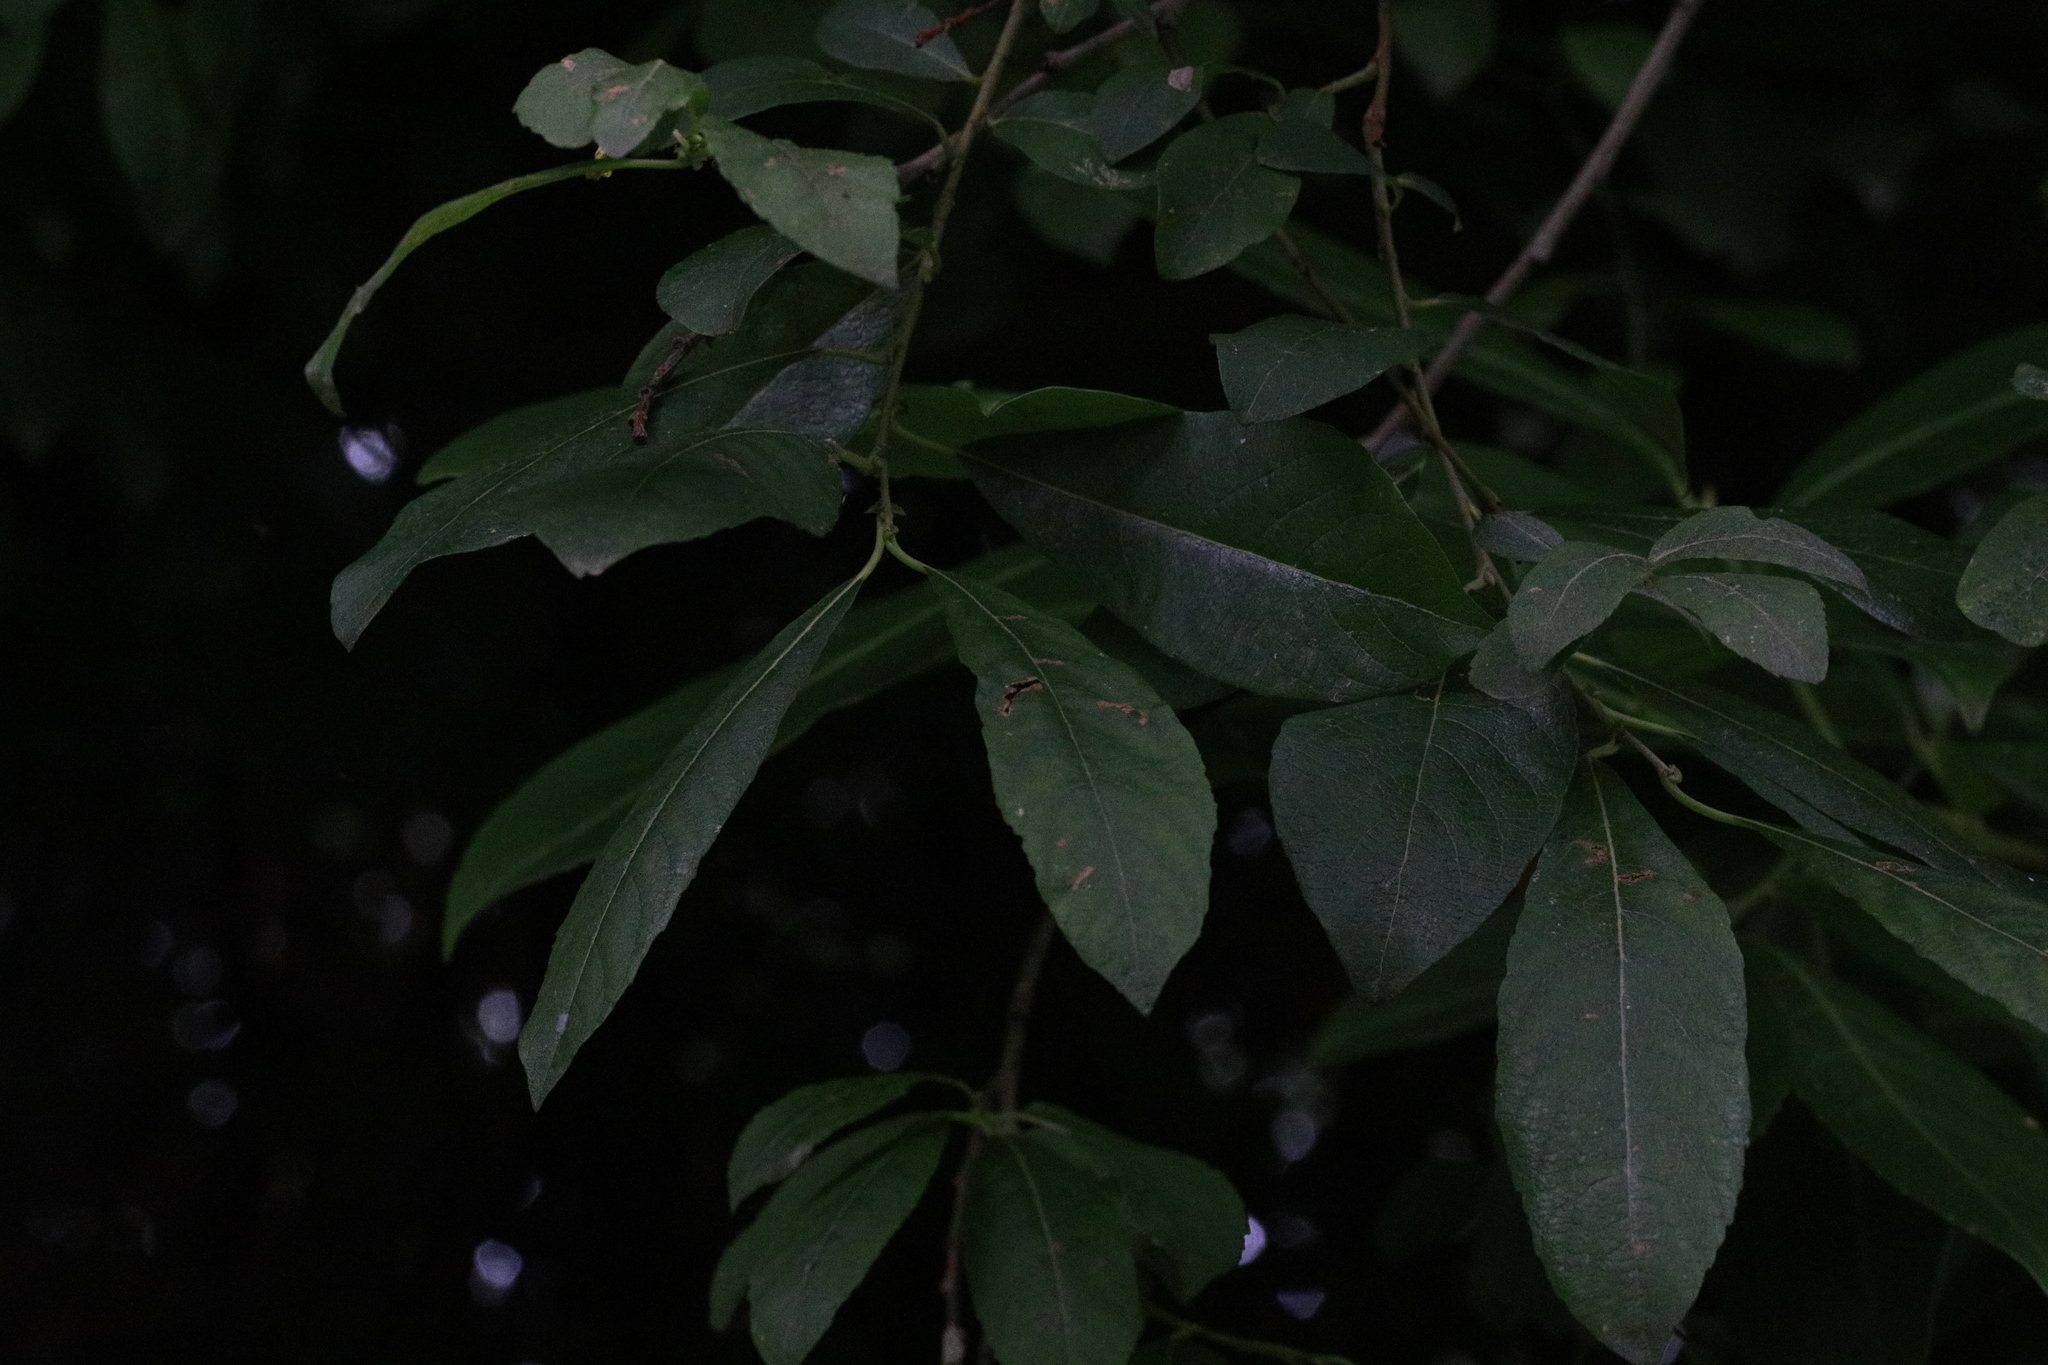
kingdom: Plantae
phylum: Tracheophyta
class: Magnoliopsida
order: Malpighiales
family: Salicaceae
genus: Salix
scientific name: Salix cinerea
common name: Common sallow
